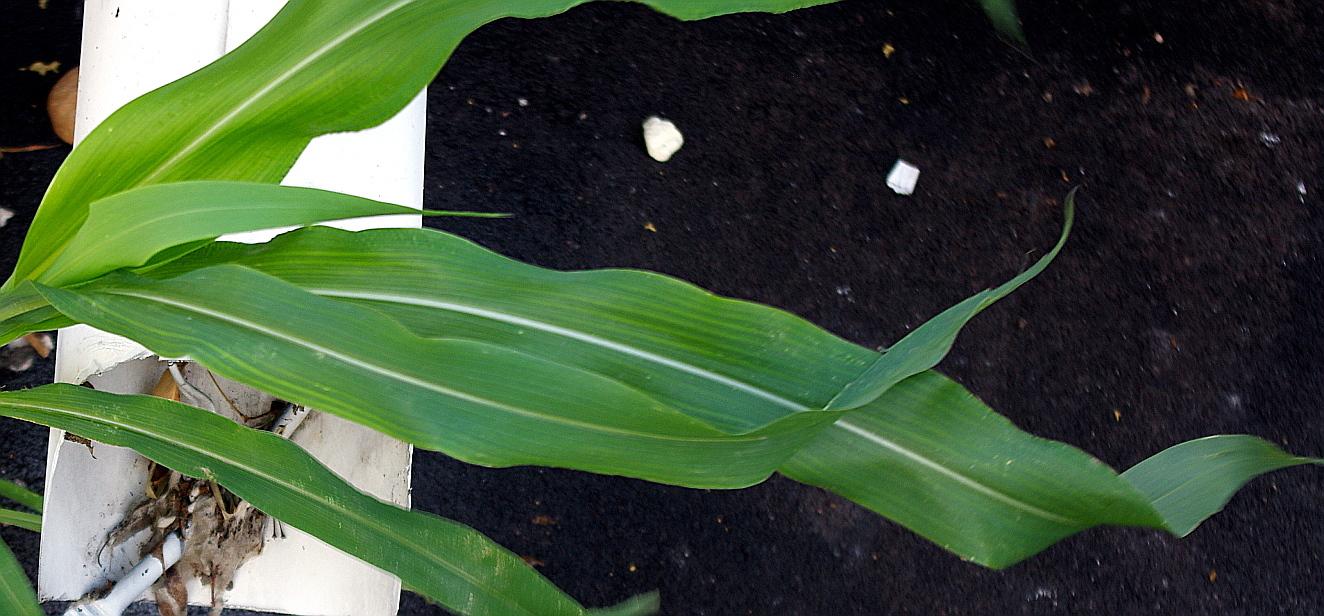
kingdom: Plantae
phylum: Tracheophyta
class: Liliopsida
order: Poales
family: Poaceae
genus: Zea
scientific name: Zea mays
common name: Maize
